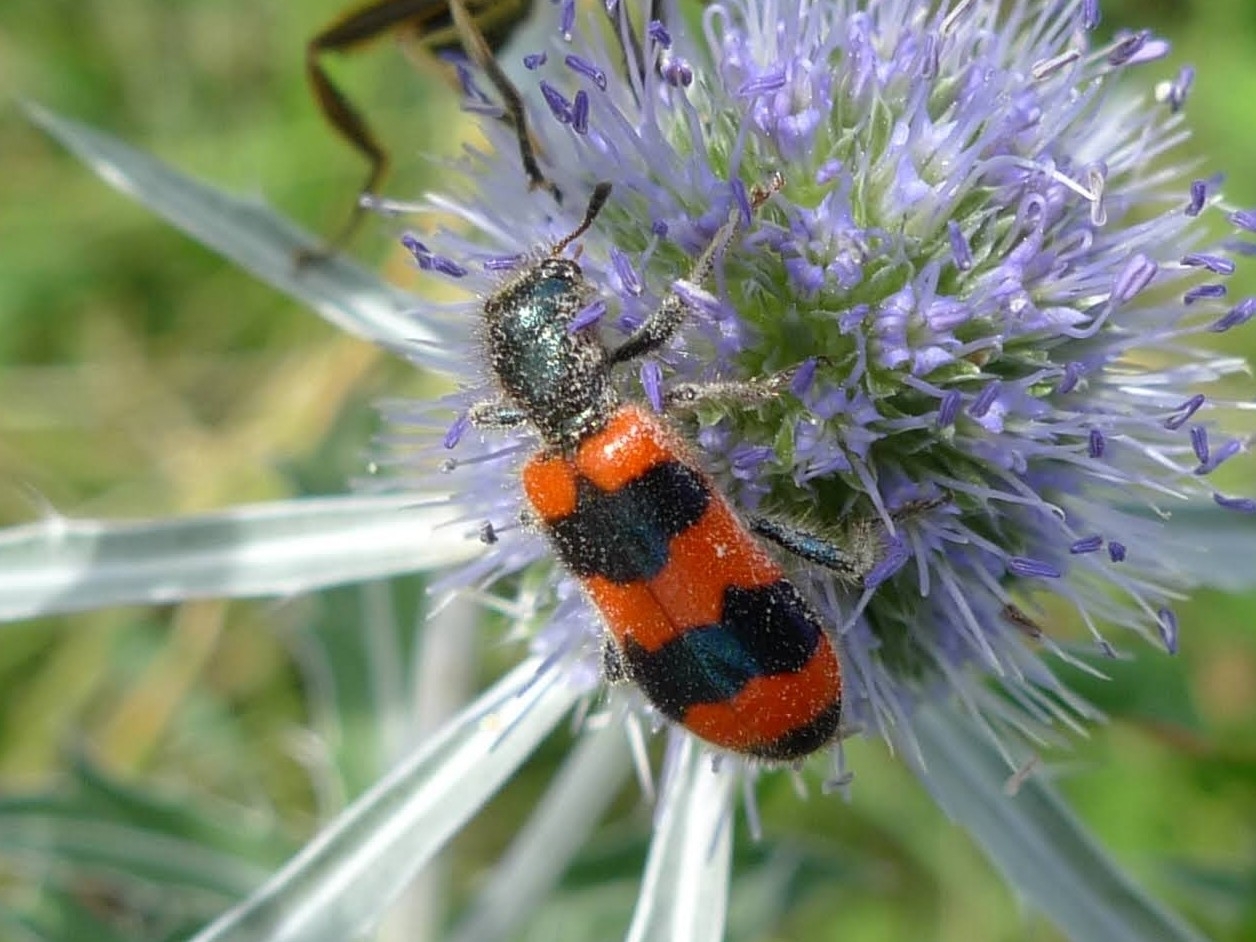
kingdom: Animalia
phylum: Arthropoda
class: Insecta
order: Coleoptera
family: Cleridae
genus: Trichodes
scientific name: Trichodes apiarius
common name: Bee-eating beetle
